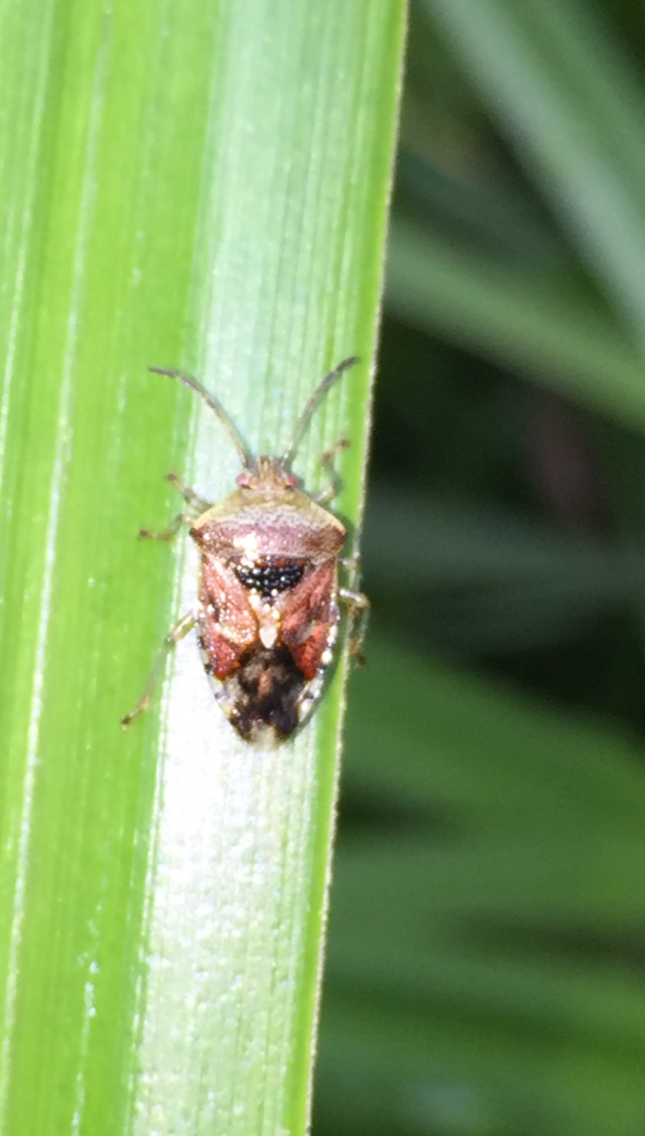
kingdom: Animalia
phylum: Arthropoda
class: Insecta
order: Hemiptera
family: Acanthosomatidae
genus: Elasmucha
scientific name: Elasmucha grisea
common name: Parent bug
